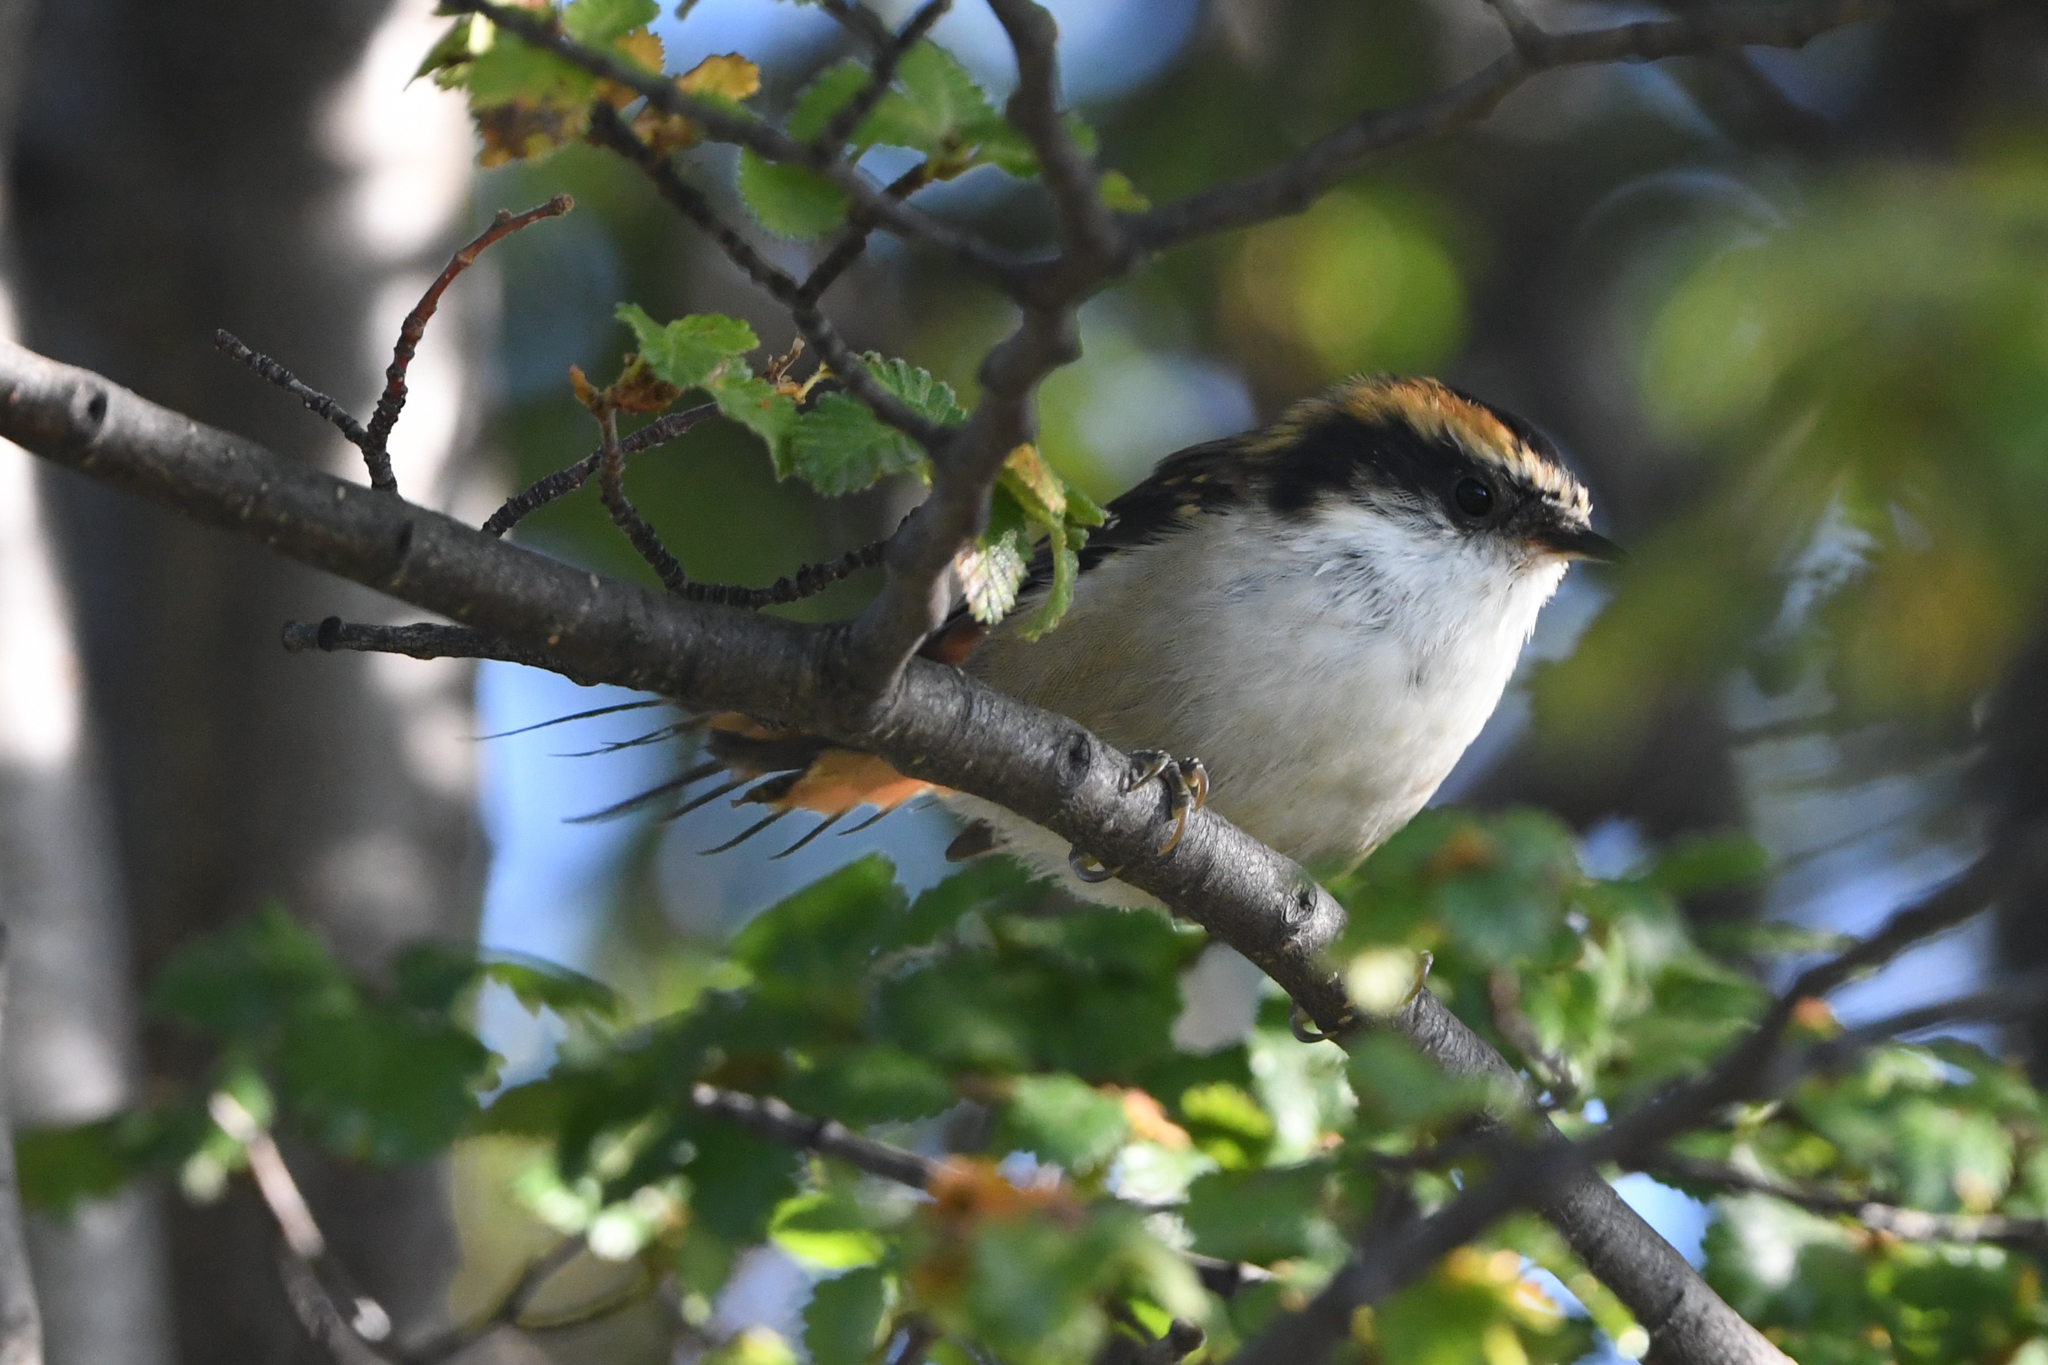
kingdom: Animalia
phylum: Chordata
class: Aves
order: Passeriformes
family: Furnariidae
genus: Aphrastura
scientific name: Aphrastura spinicauda
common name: Thorn-tailed rayadito
